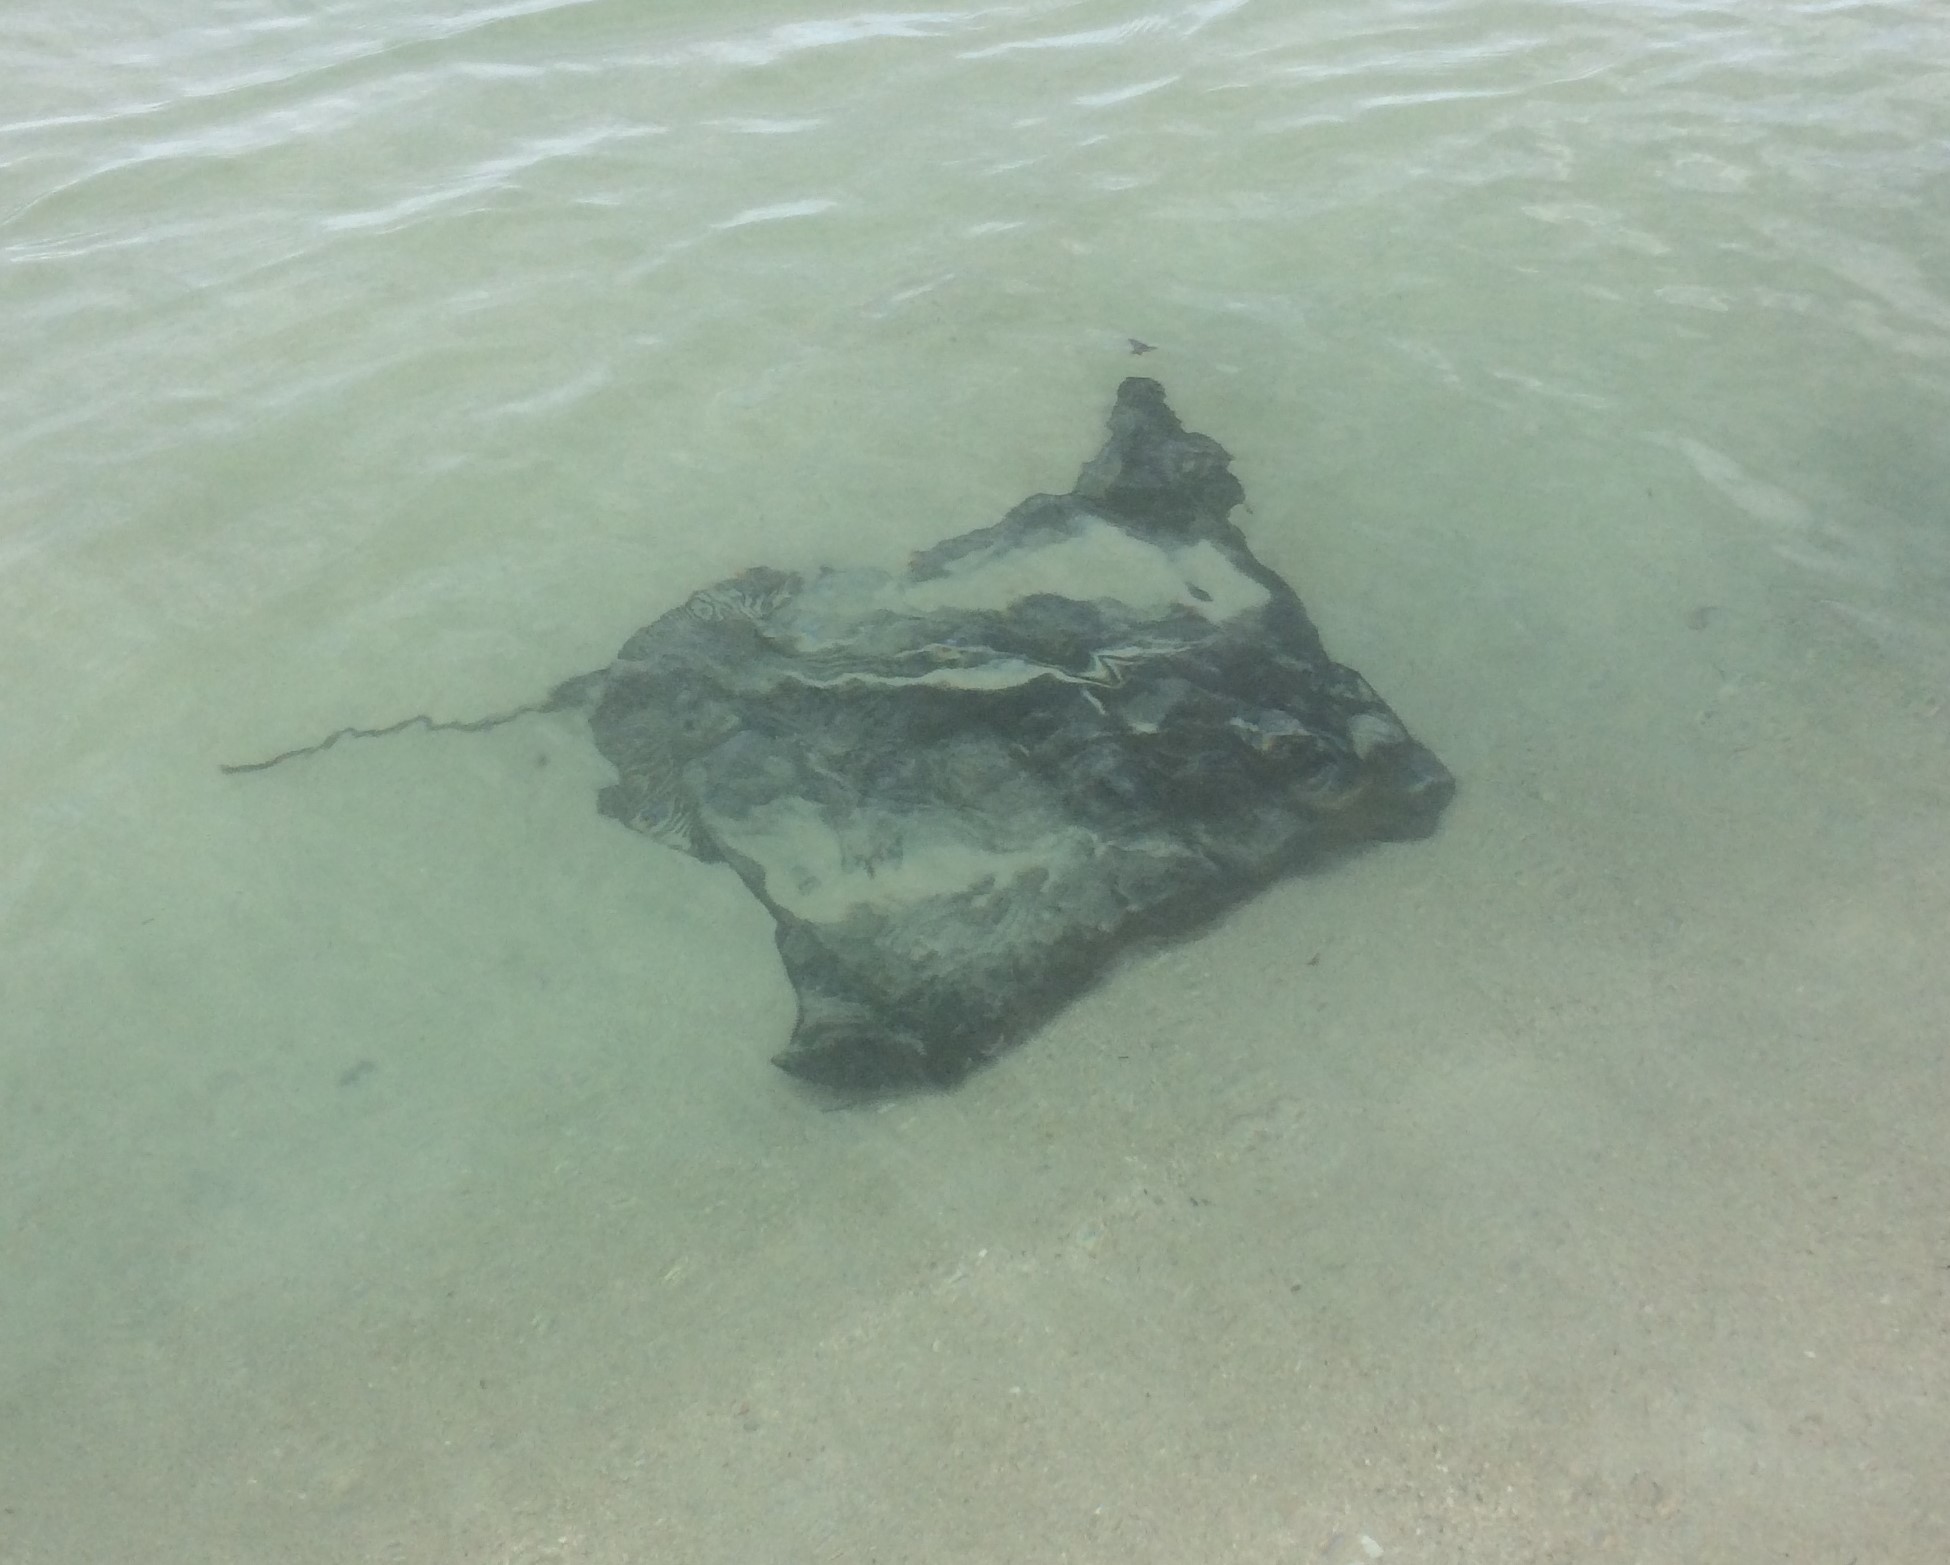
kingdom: Animalia
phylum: Chordata
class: Elasmobranchii
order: Myliobatiformes
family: Myliobatidae
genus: Myliobatis
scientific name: Myliobatis tenuicaudatus
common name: Eagle ray
